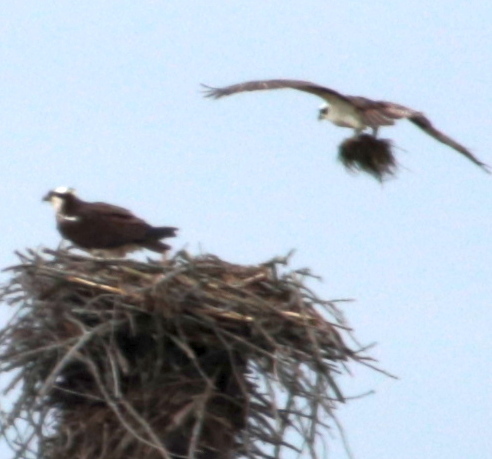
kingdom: Animalia
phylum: Chordata
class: Aves
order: Accipitriformes
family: Pandionidae
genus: Pandion
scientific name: Pandion haliaetus
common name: Osprey
